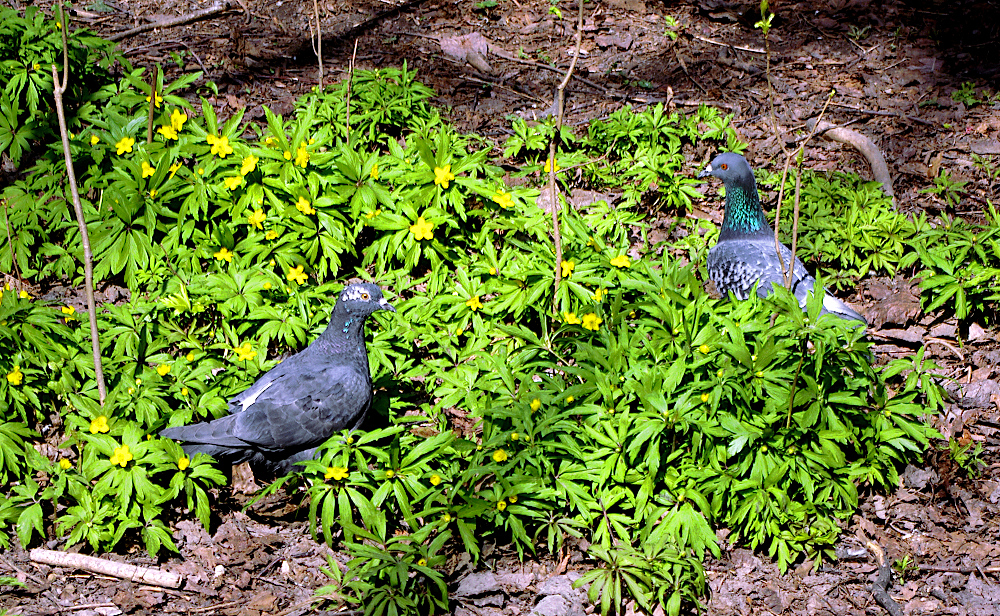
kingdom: Plantae
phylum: Tracheophyta
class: Magnoliopsida
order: Ranunculales
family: Ranunculaceae
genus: Anemone
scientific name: Anemone ranunculoides
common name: Yellow anemone
